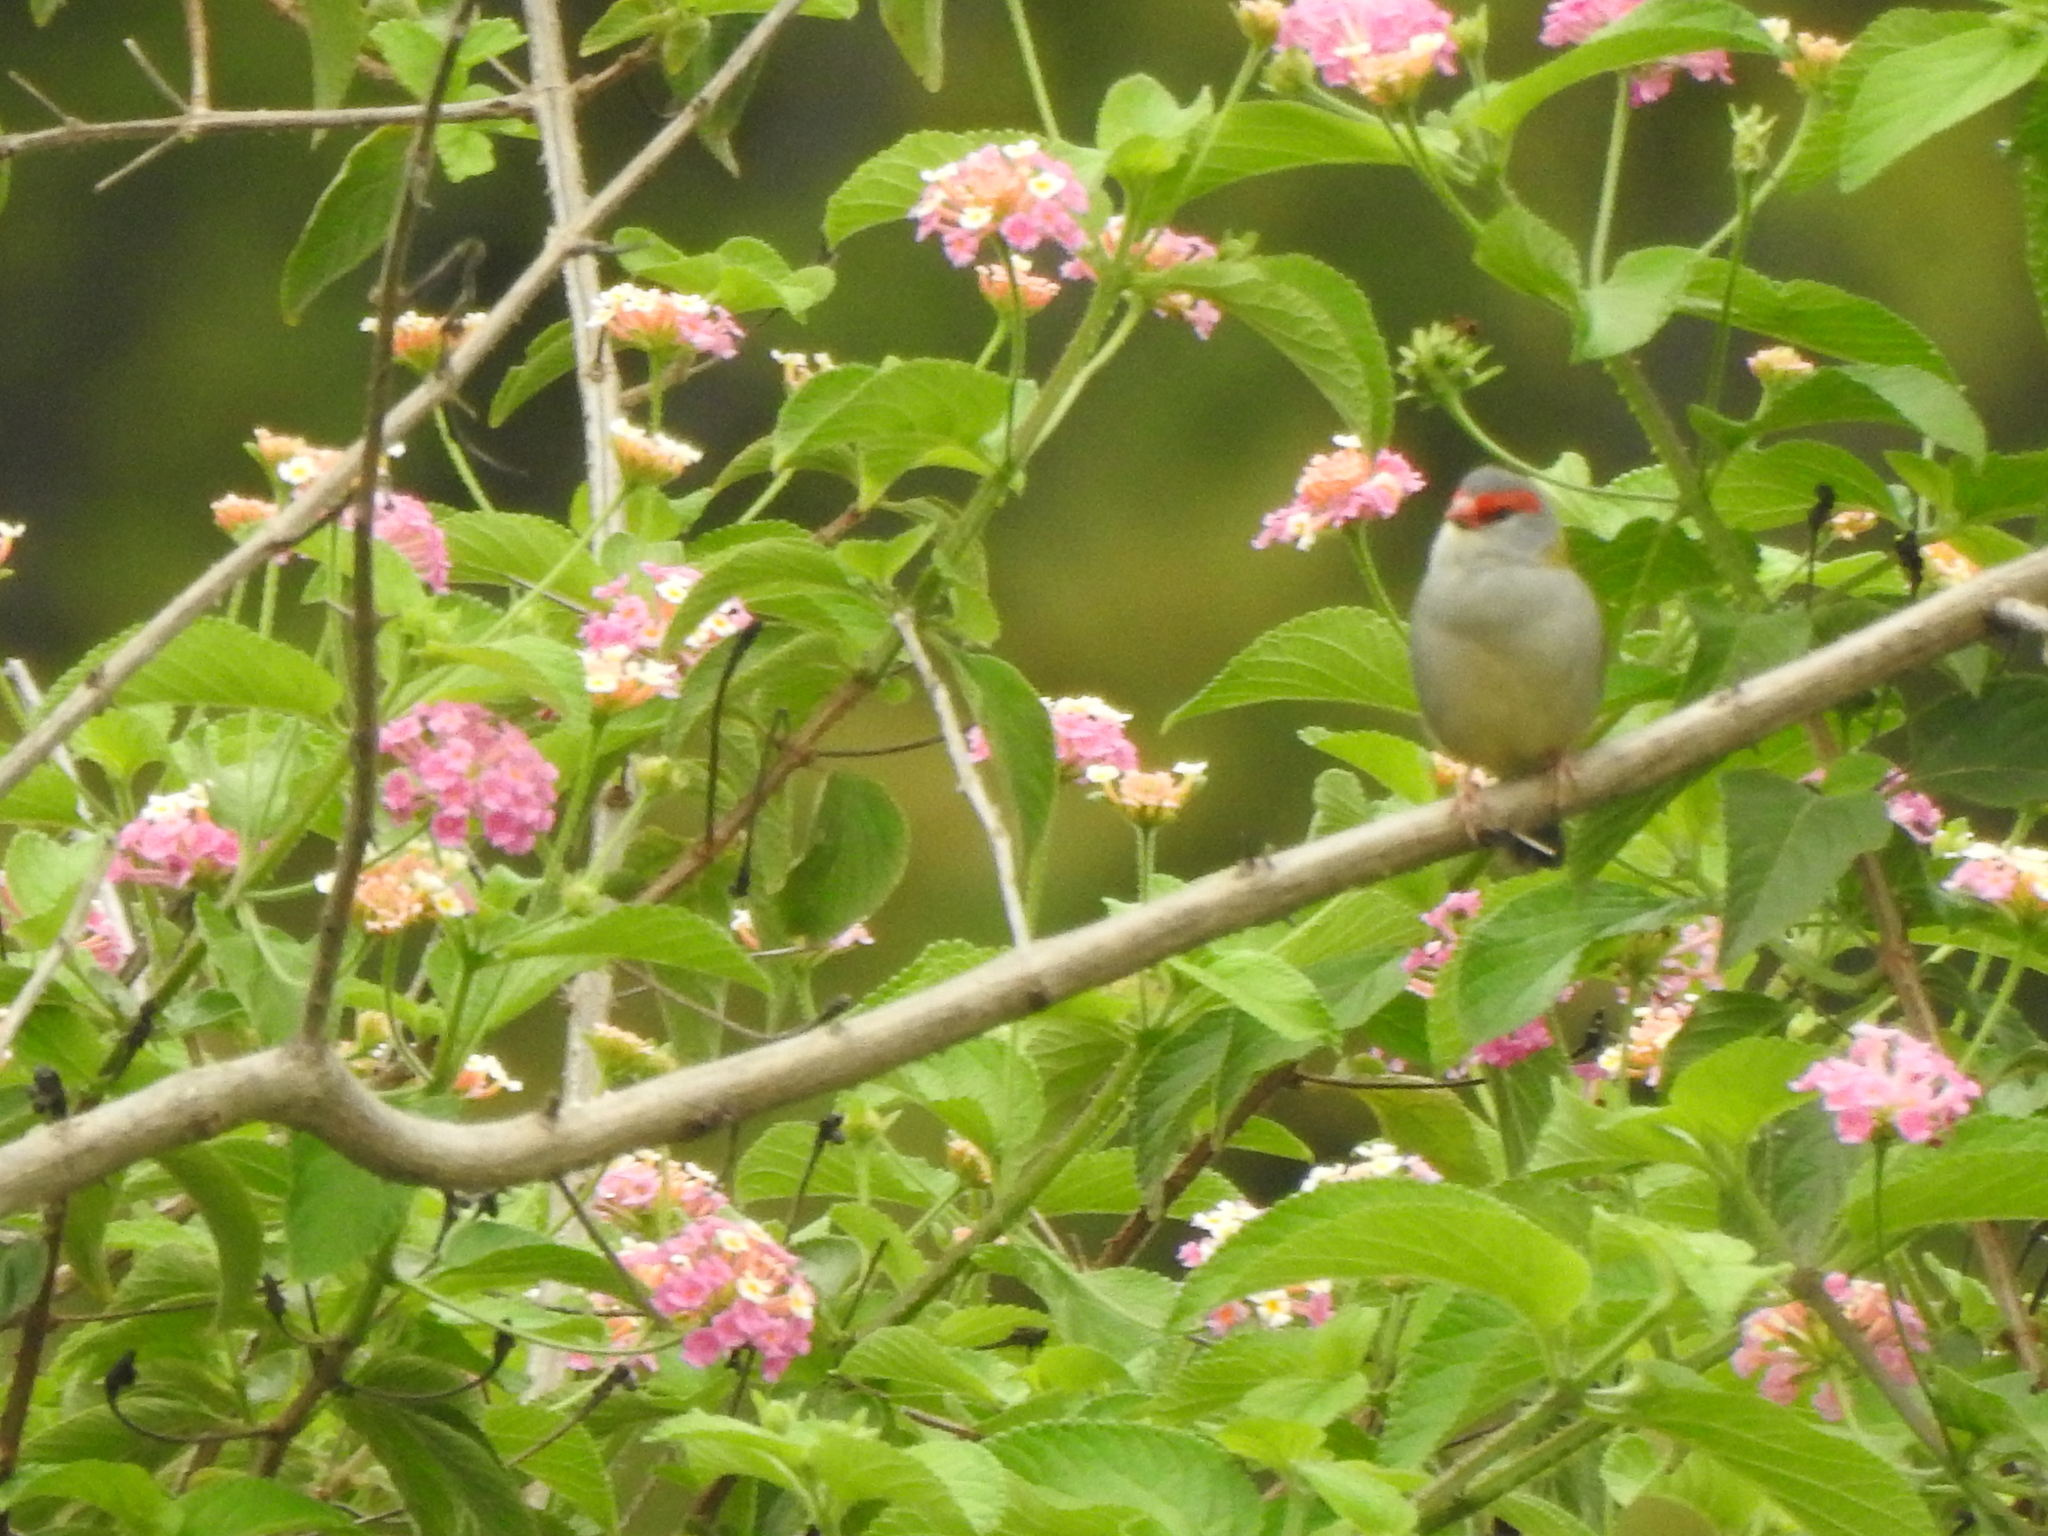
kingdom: Animalia
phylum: Chordata
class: Aves
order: Passeriformes
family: Estrildidae
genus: Neochmia
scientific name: Neochmia temporalis
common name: Red-browed finch
